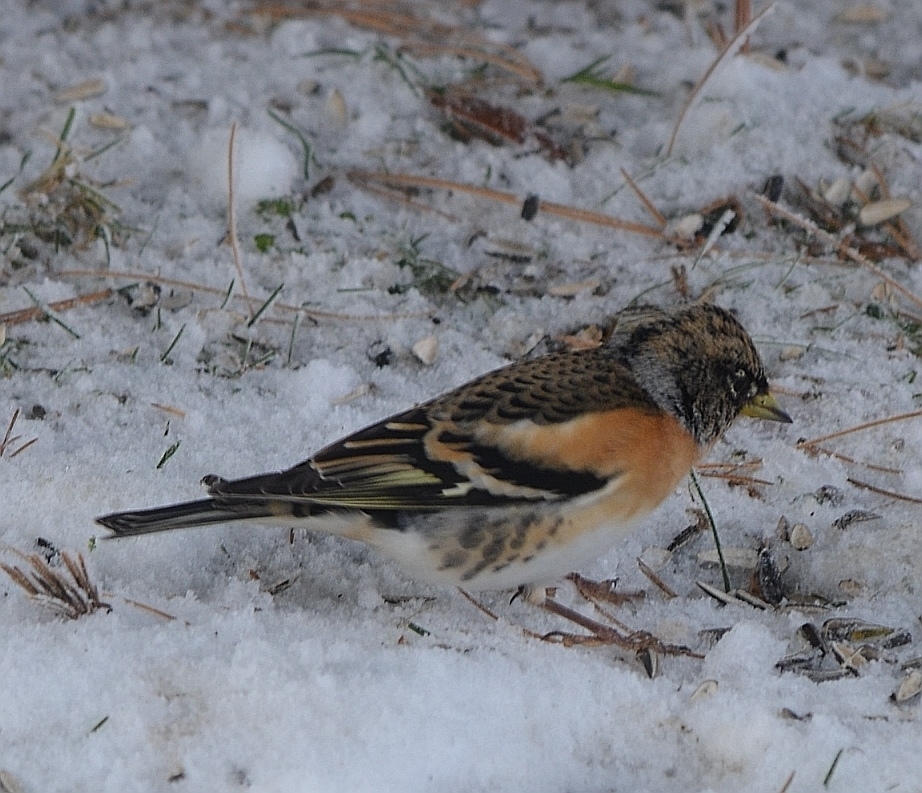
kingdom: Animalia
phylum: Chordata
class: Aves
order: Passeriformes
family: Fringillidae
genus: Fringilla
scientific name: Fringilla montifringilla
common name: Brambling
